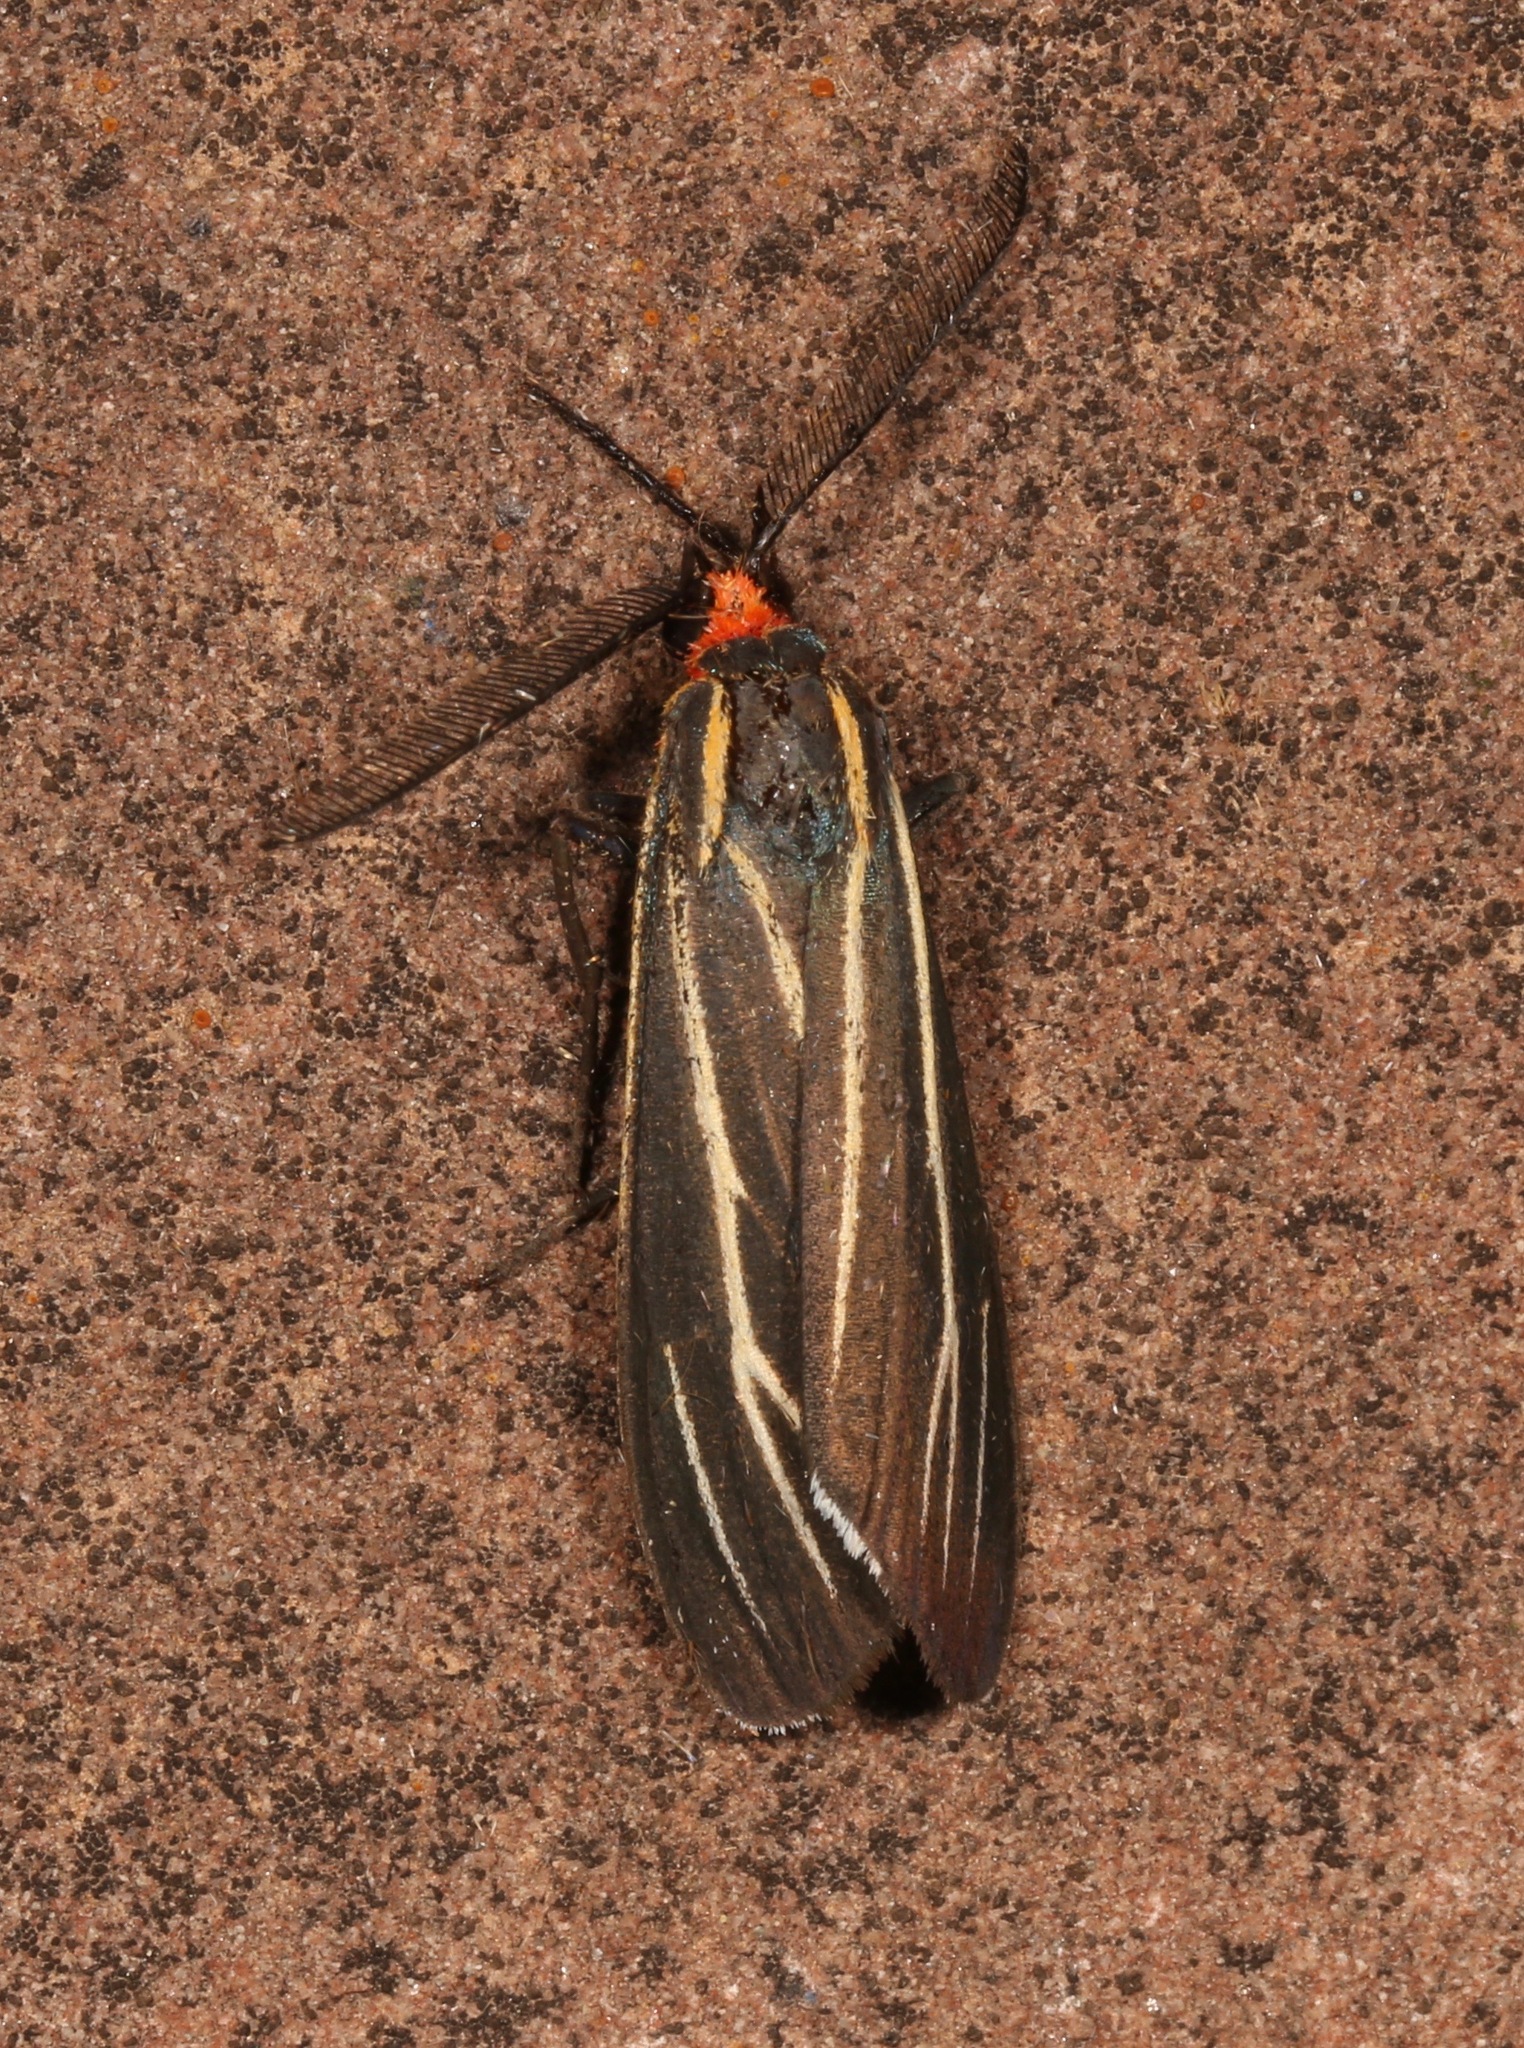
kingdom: Animalia
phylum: Arthropoda
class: Insecta
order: Lepidoptera
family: Erebidae
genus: Ctenucha
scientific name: Ctenucha venosa
